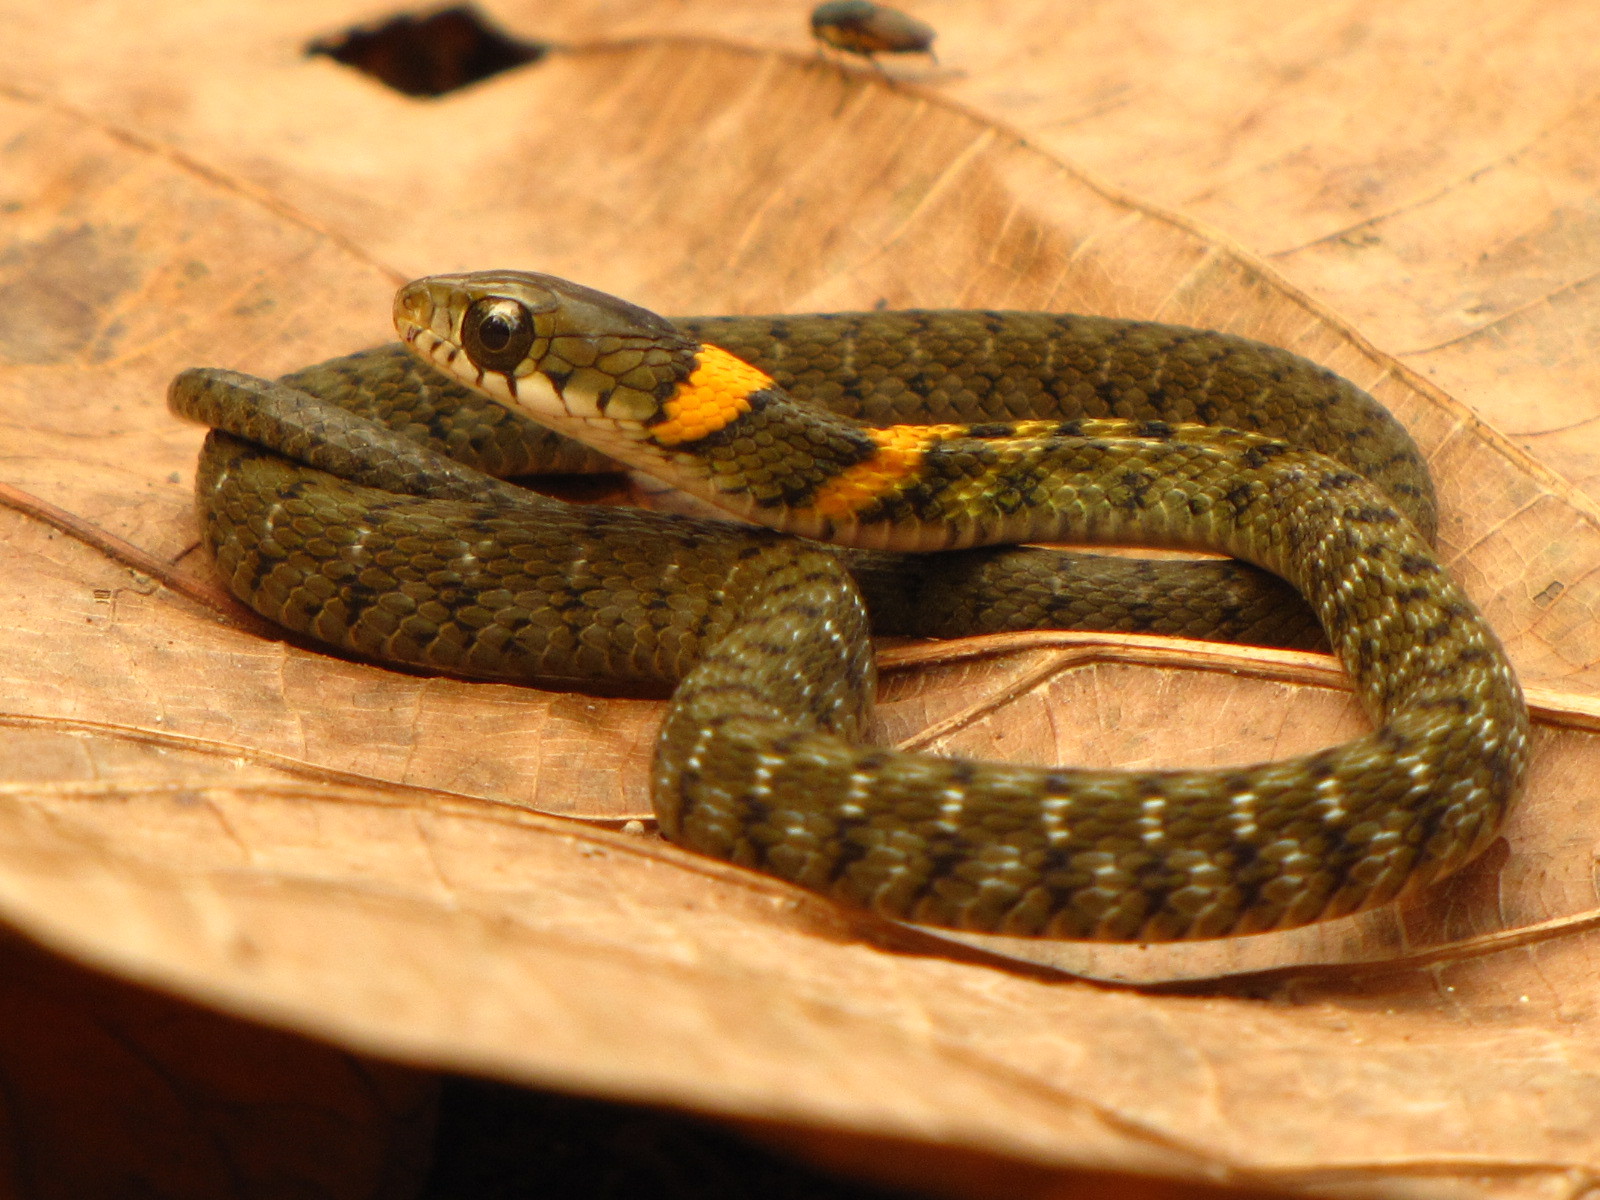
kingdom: Animalia
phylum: Chordata
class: Squamata
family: Colubridae
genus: Rhabdophis
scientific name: Rhabdophis himalayanus
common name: Orange-collared keelback
